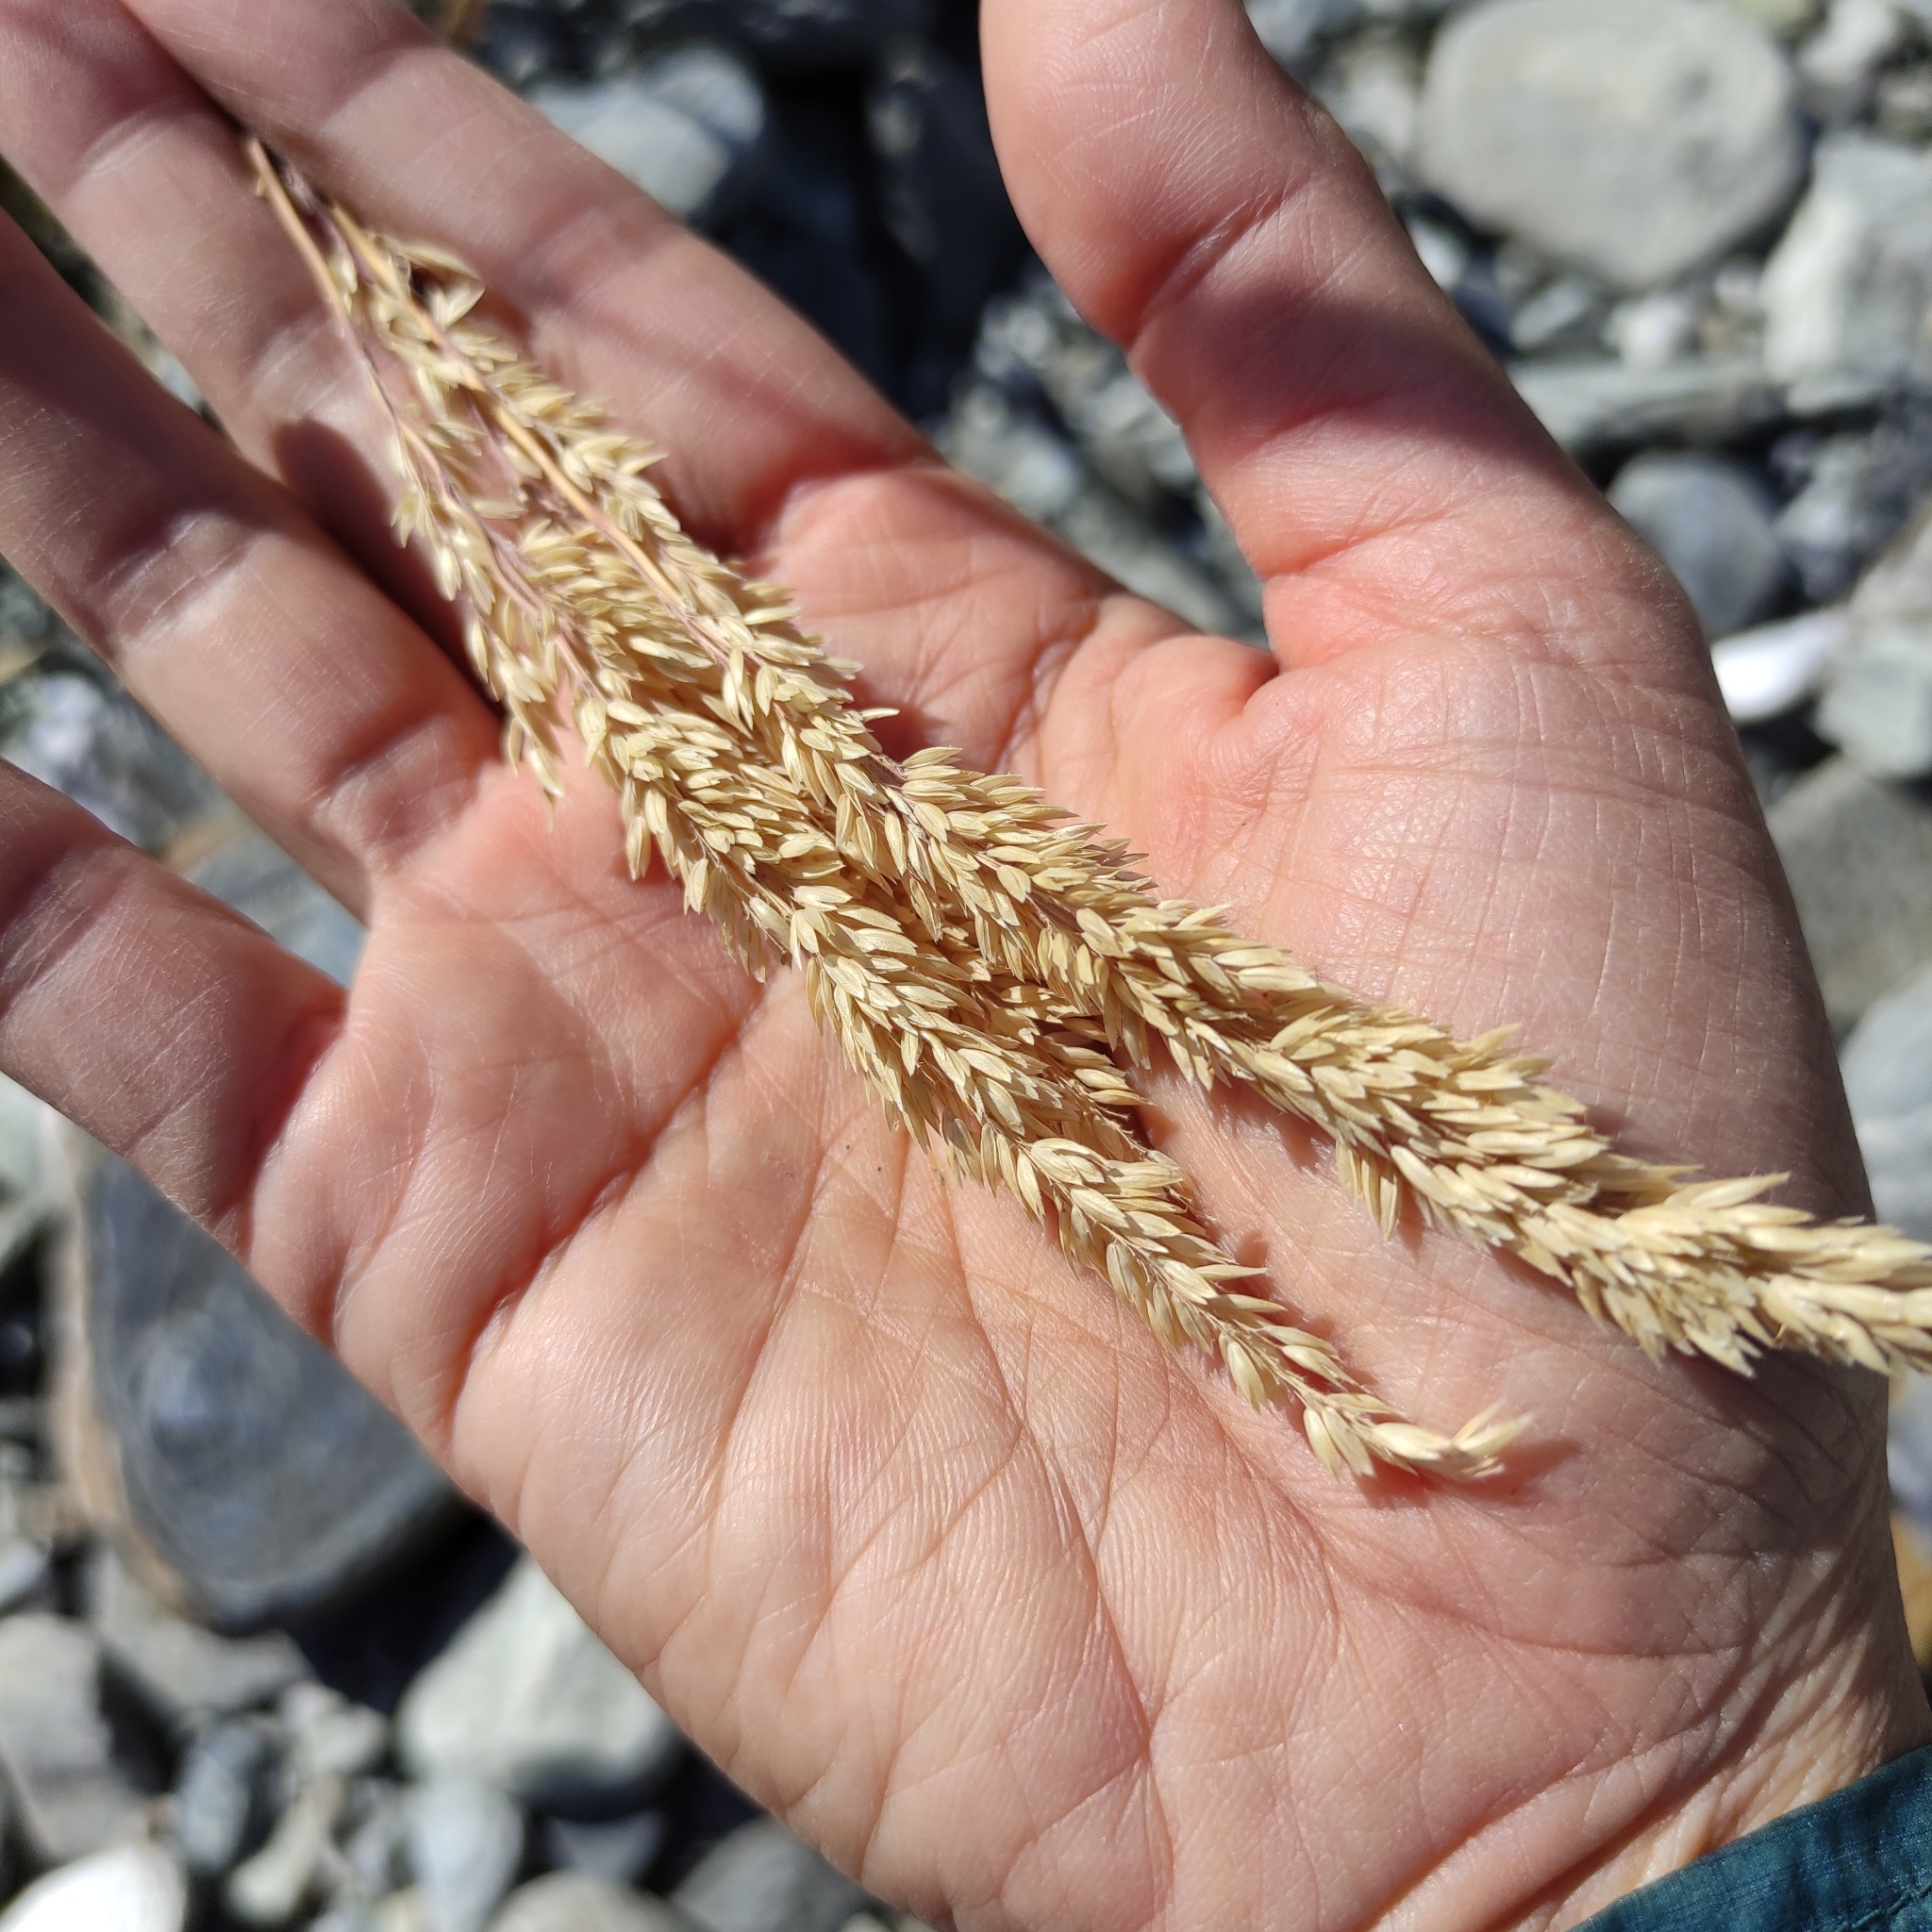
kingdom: Plantae
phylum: Tracheophyta
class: Liliopsida
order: Poales
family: Poaceae
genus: Holcus
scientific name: Holcus lanatus
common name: Yorkshire-fog
